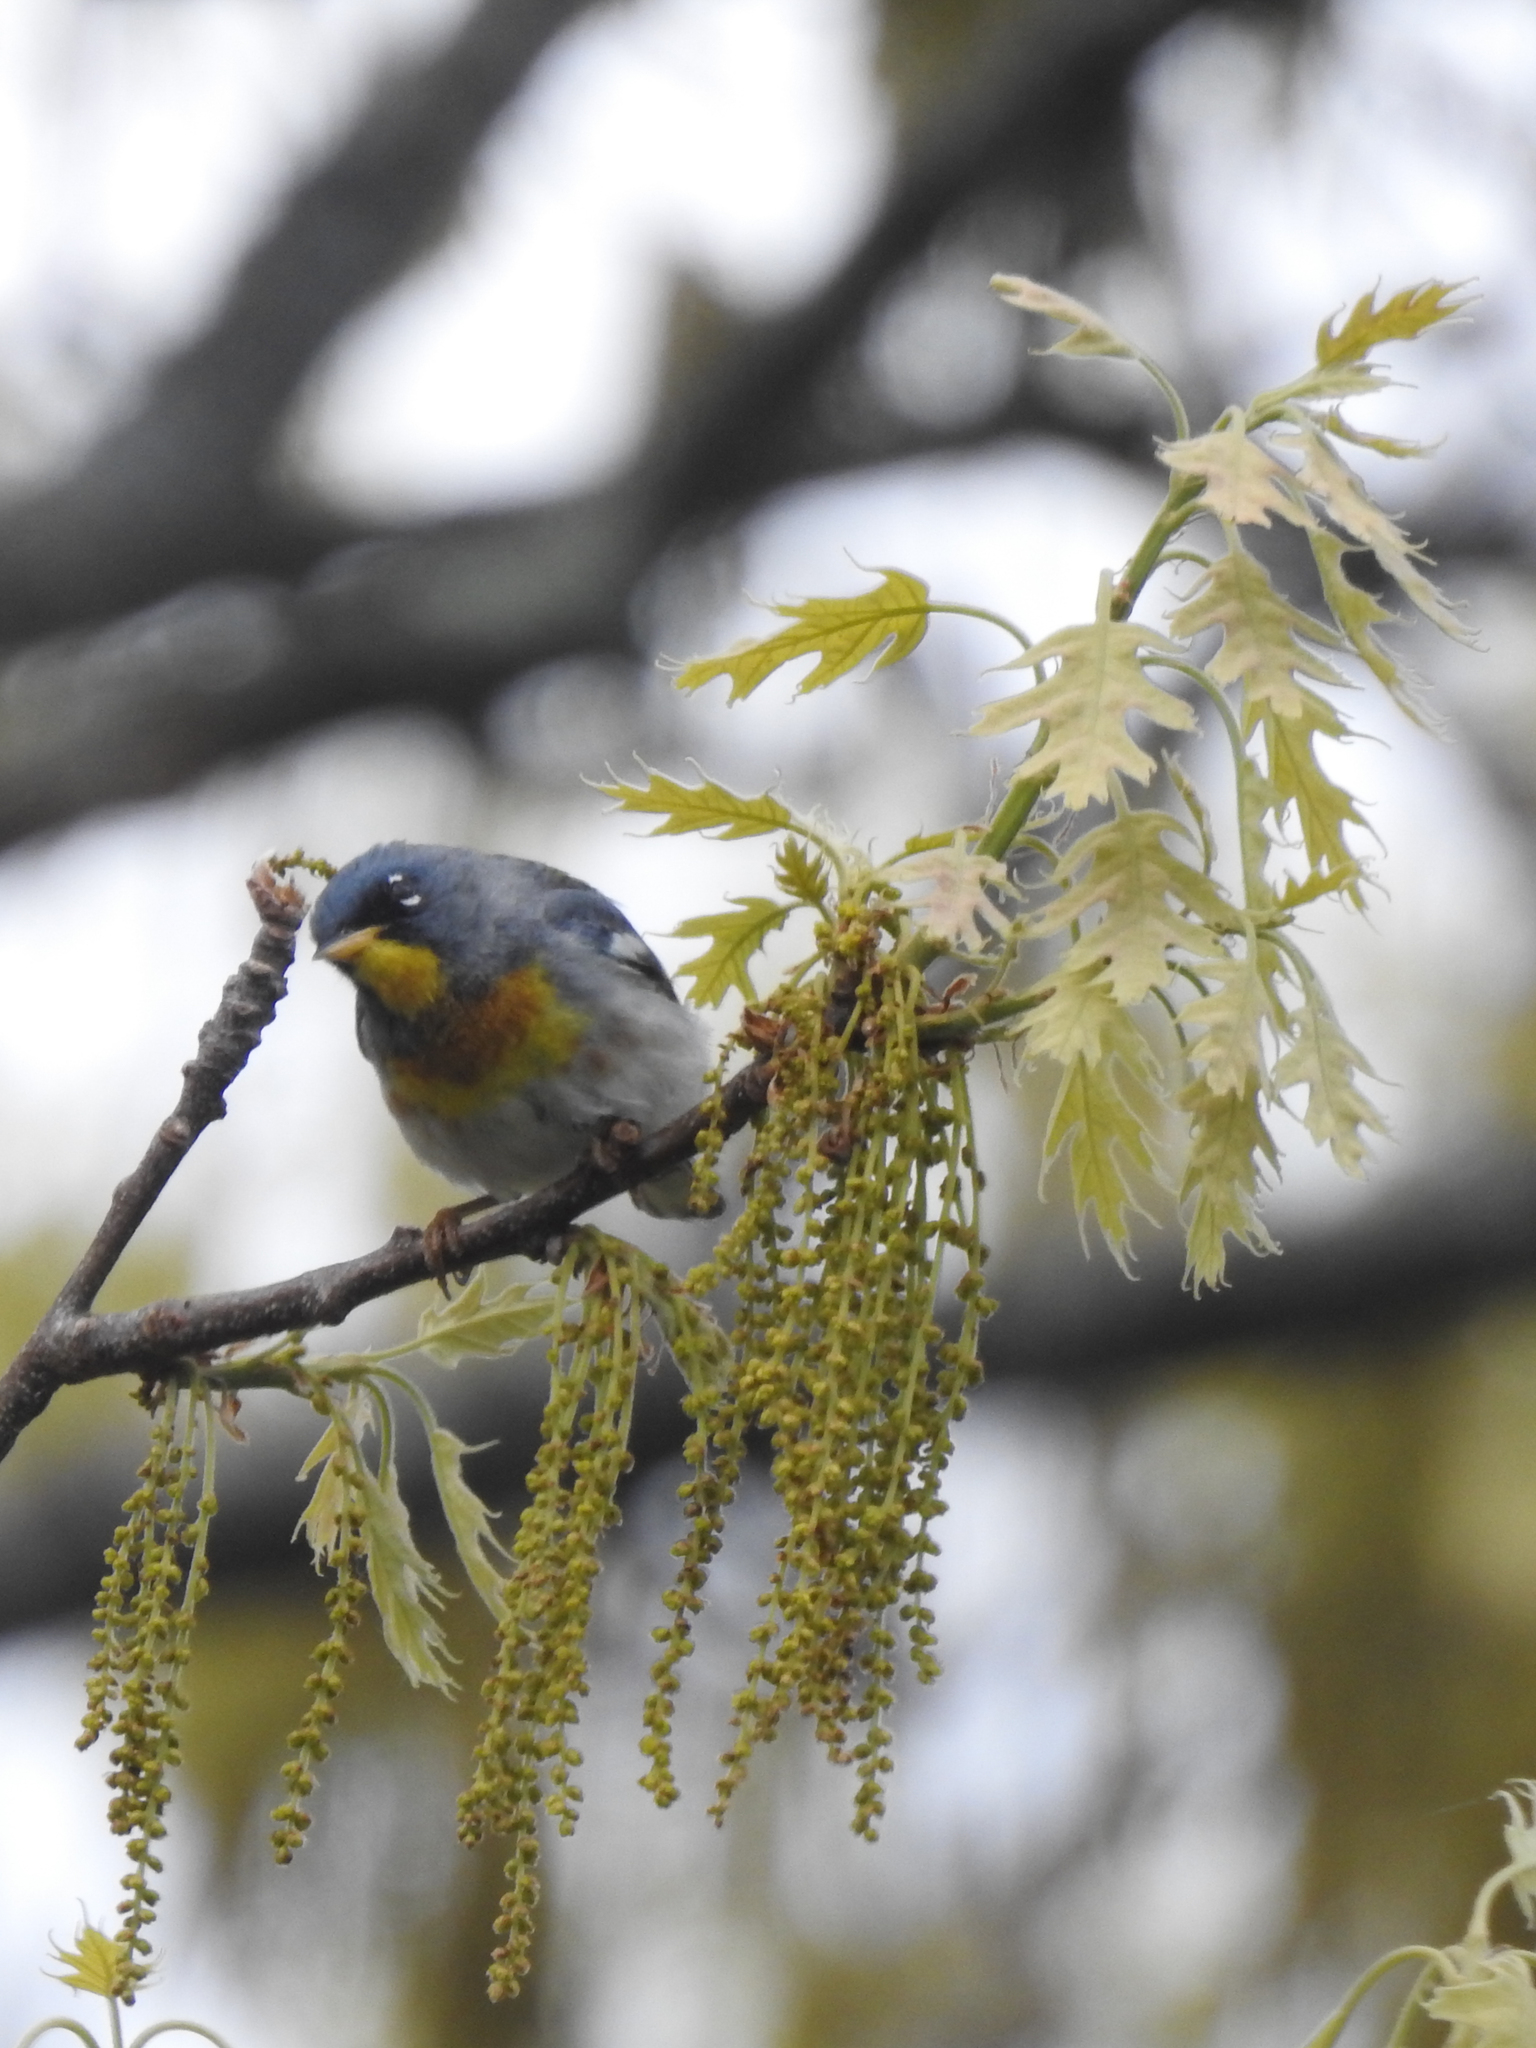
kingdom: Animalia
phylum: Chordata
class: Aves
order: Passeriformes
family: Parulidae
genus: Setophaga
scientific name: Setophaga americana
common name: Northern parula
